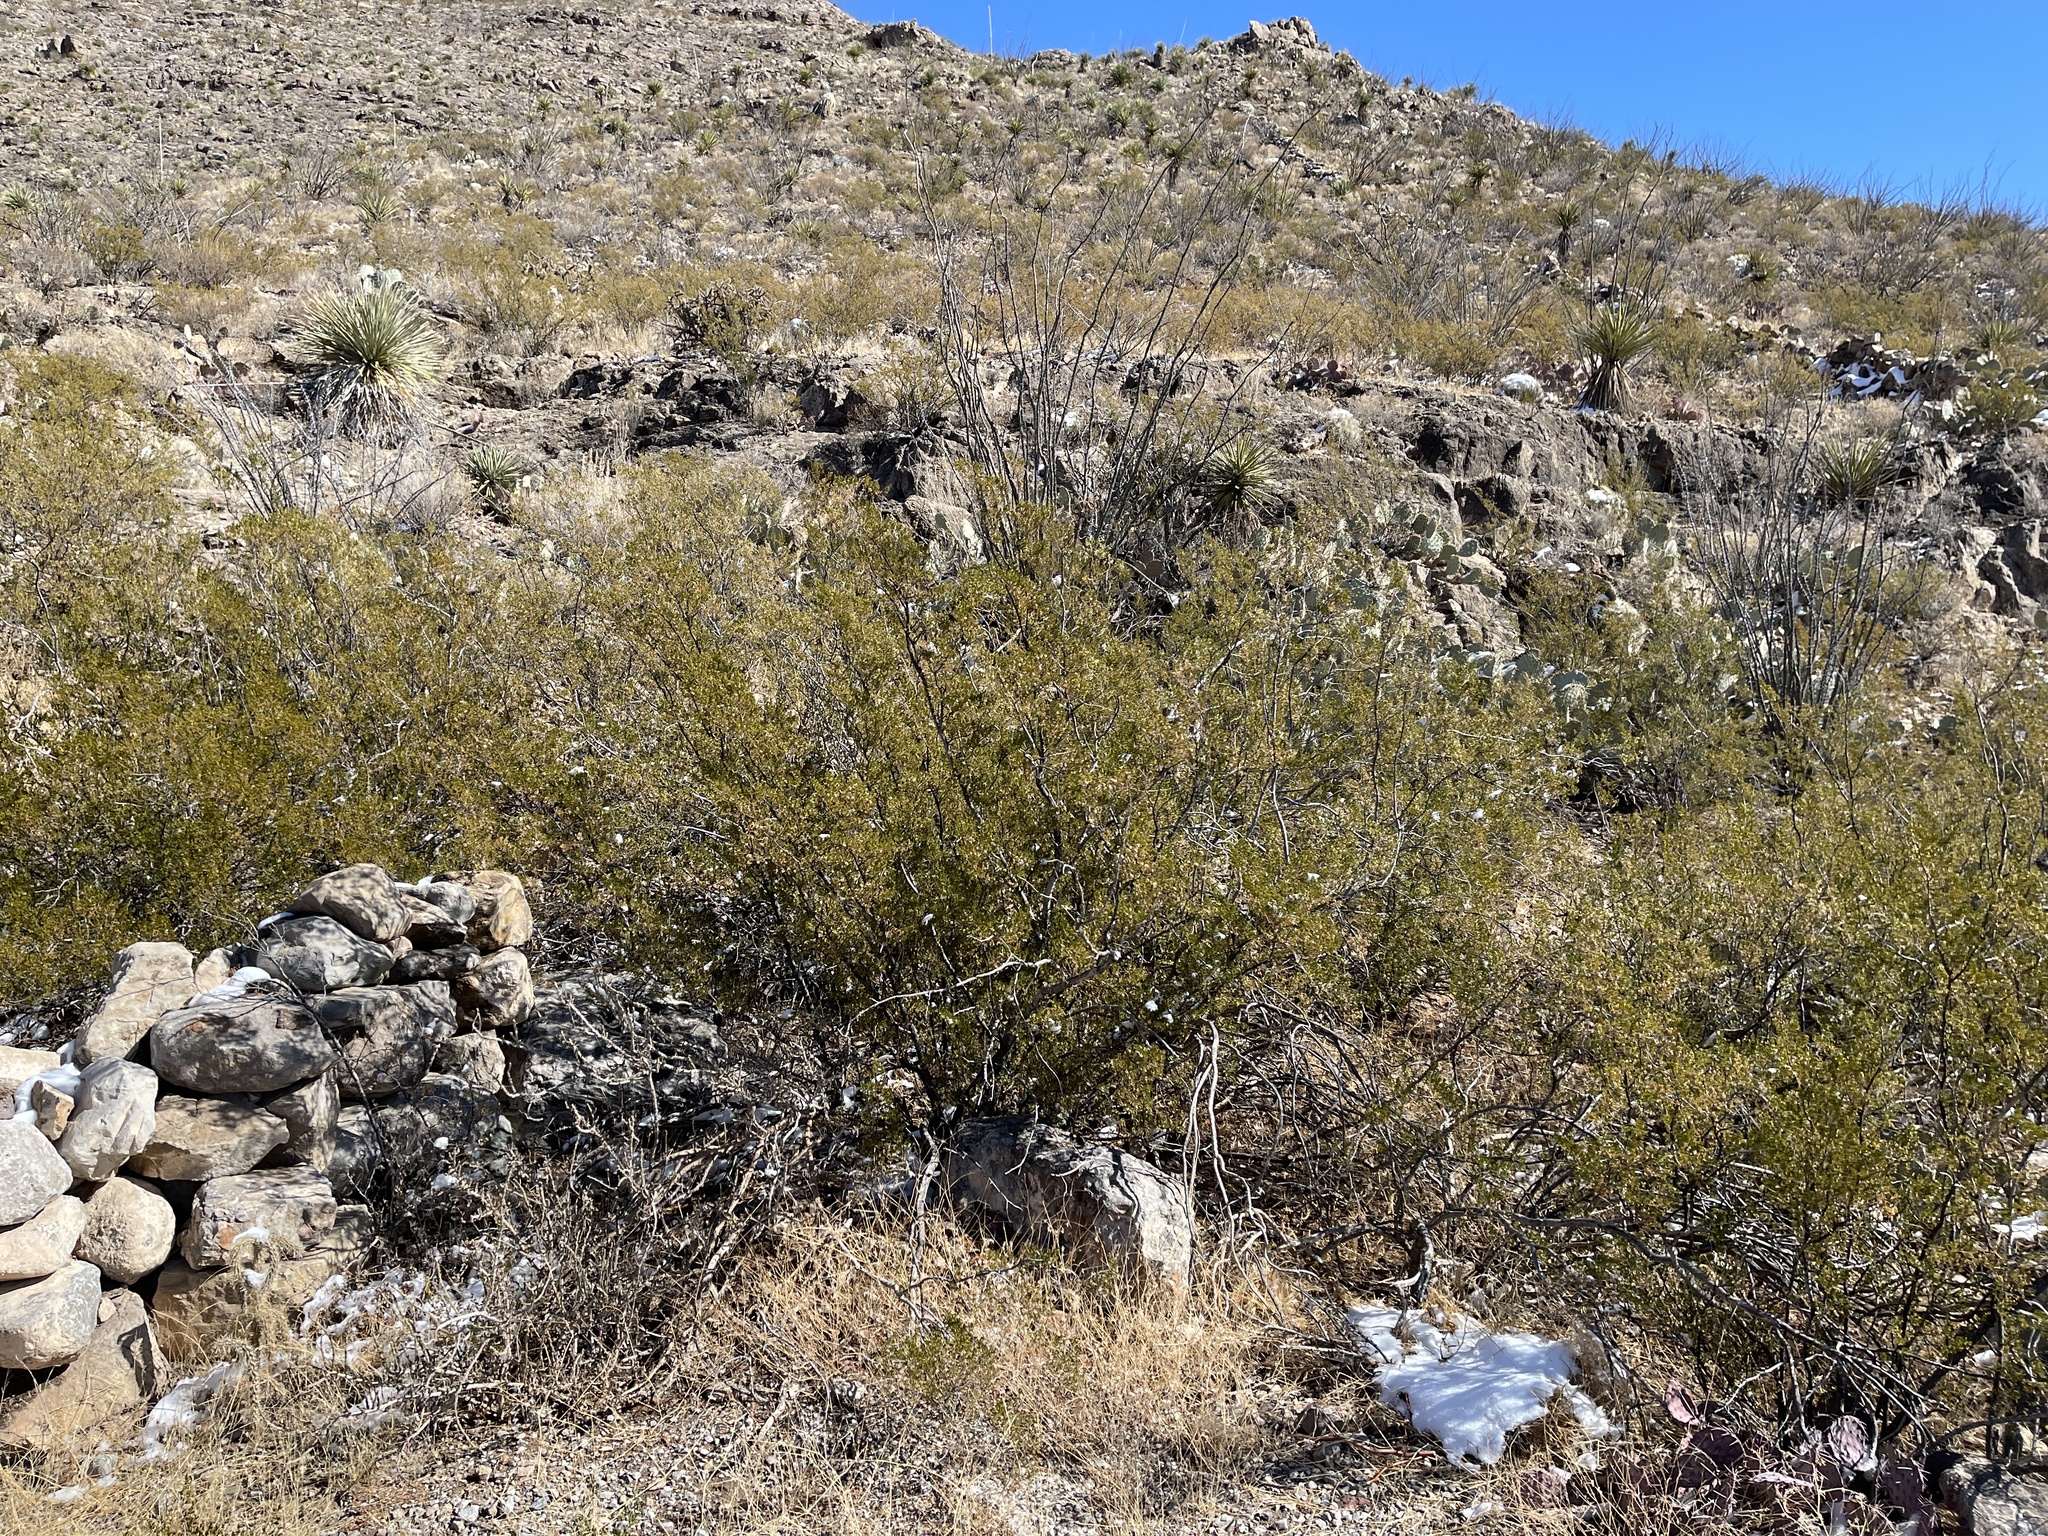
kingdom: Plantae
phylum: Tracheophyta
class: Magnoliopsida
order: Zygophyllales
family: Zygophyllaceae
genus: Larrea
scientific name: Larrea tridentata
